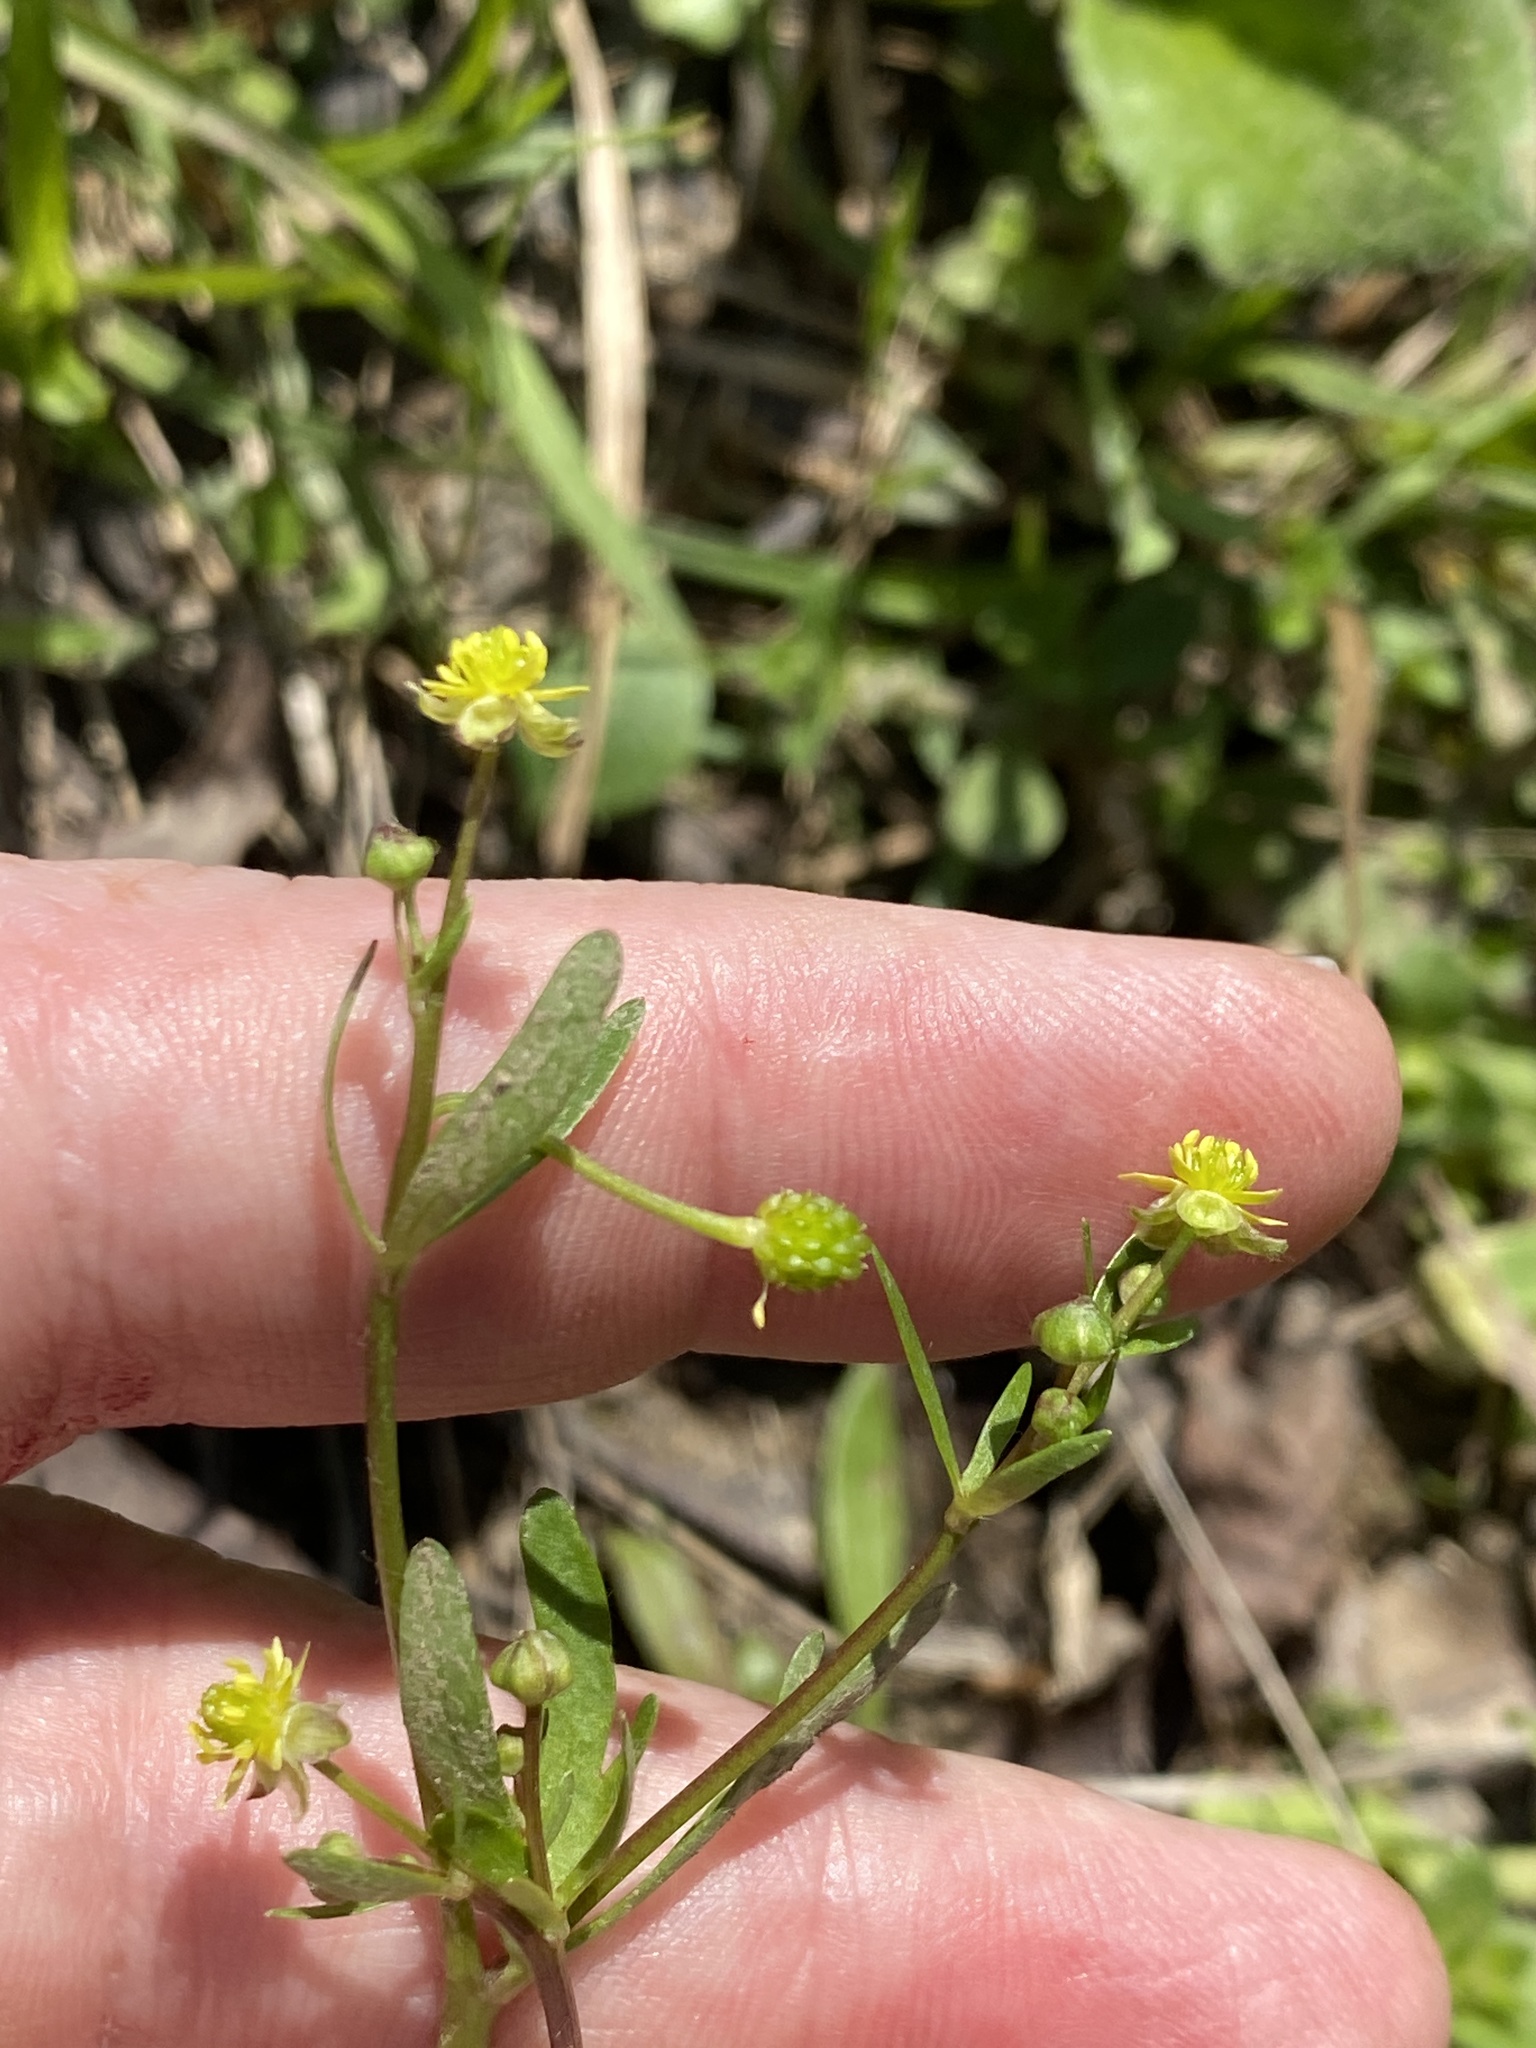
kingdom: Plantae
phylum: Tracheophyta
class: Magnoliopsida
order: Ranunculales
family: Ranunculaceae
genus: Ranunculus
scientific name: Ranunculus abortivus
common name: Early wood buttercup
